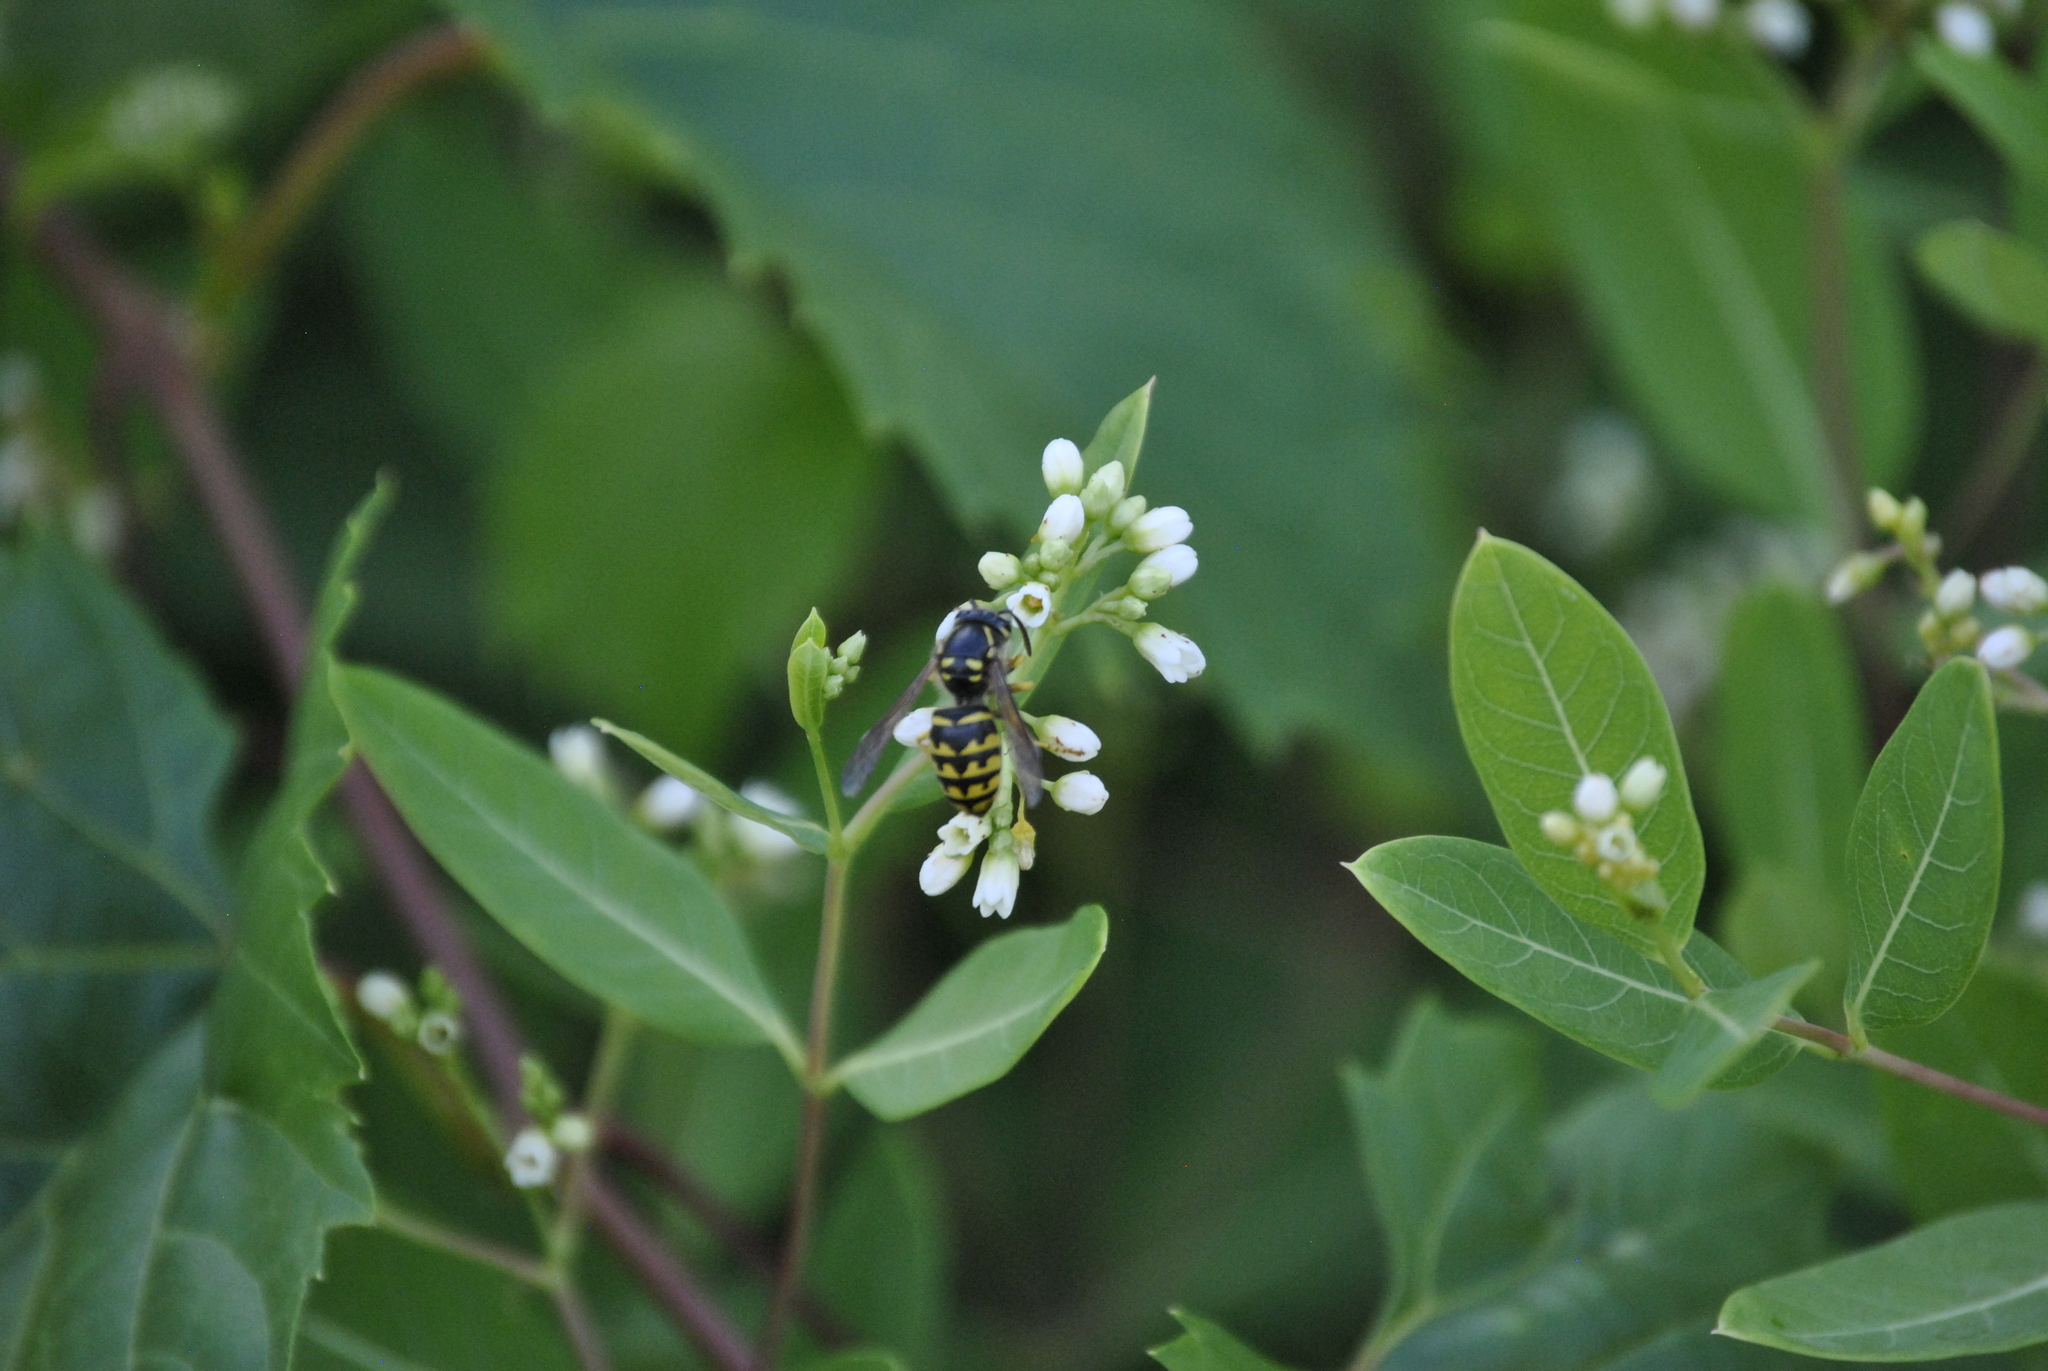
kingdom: Animalia
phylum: Arthropoda
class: Insecta
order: Hymenoptera
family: Vespidae
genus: Dolichovespula
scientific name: Dolichovespula arenaria
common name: Aerial yellowjacket
